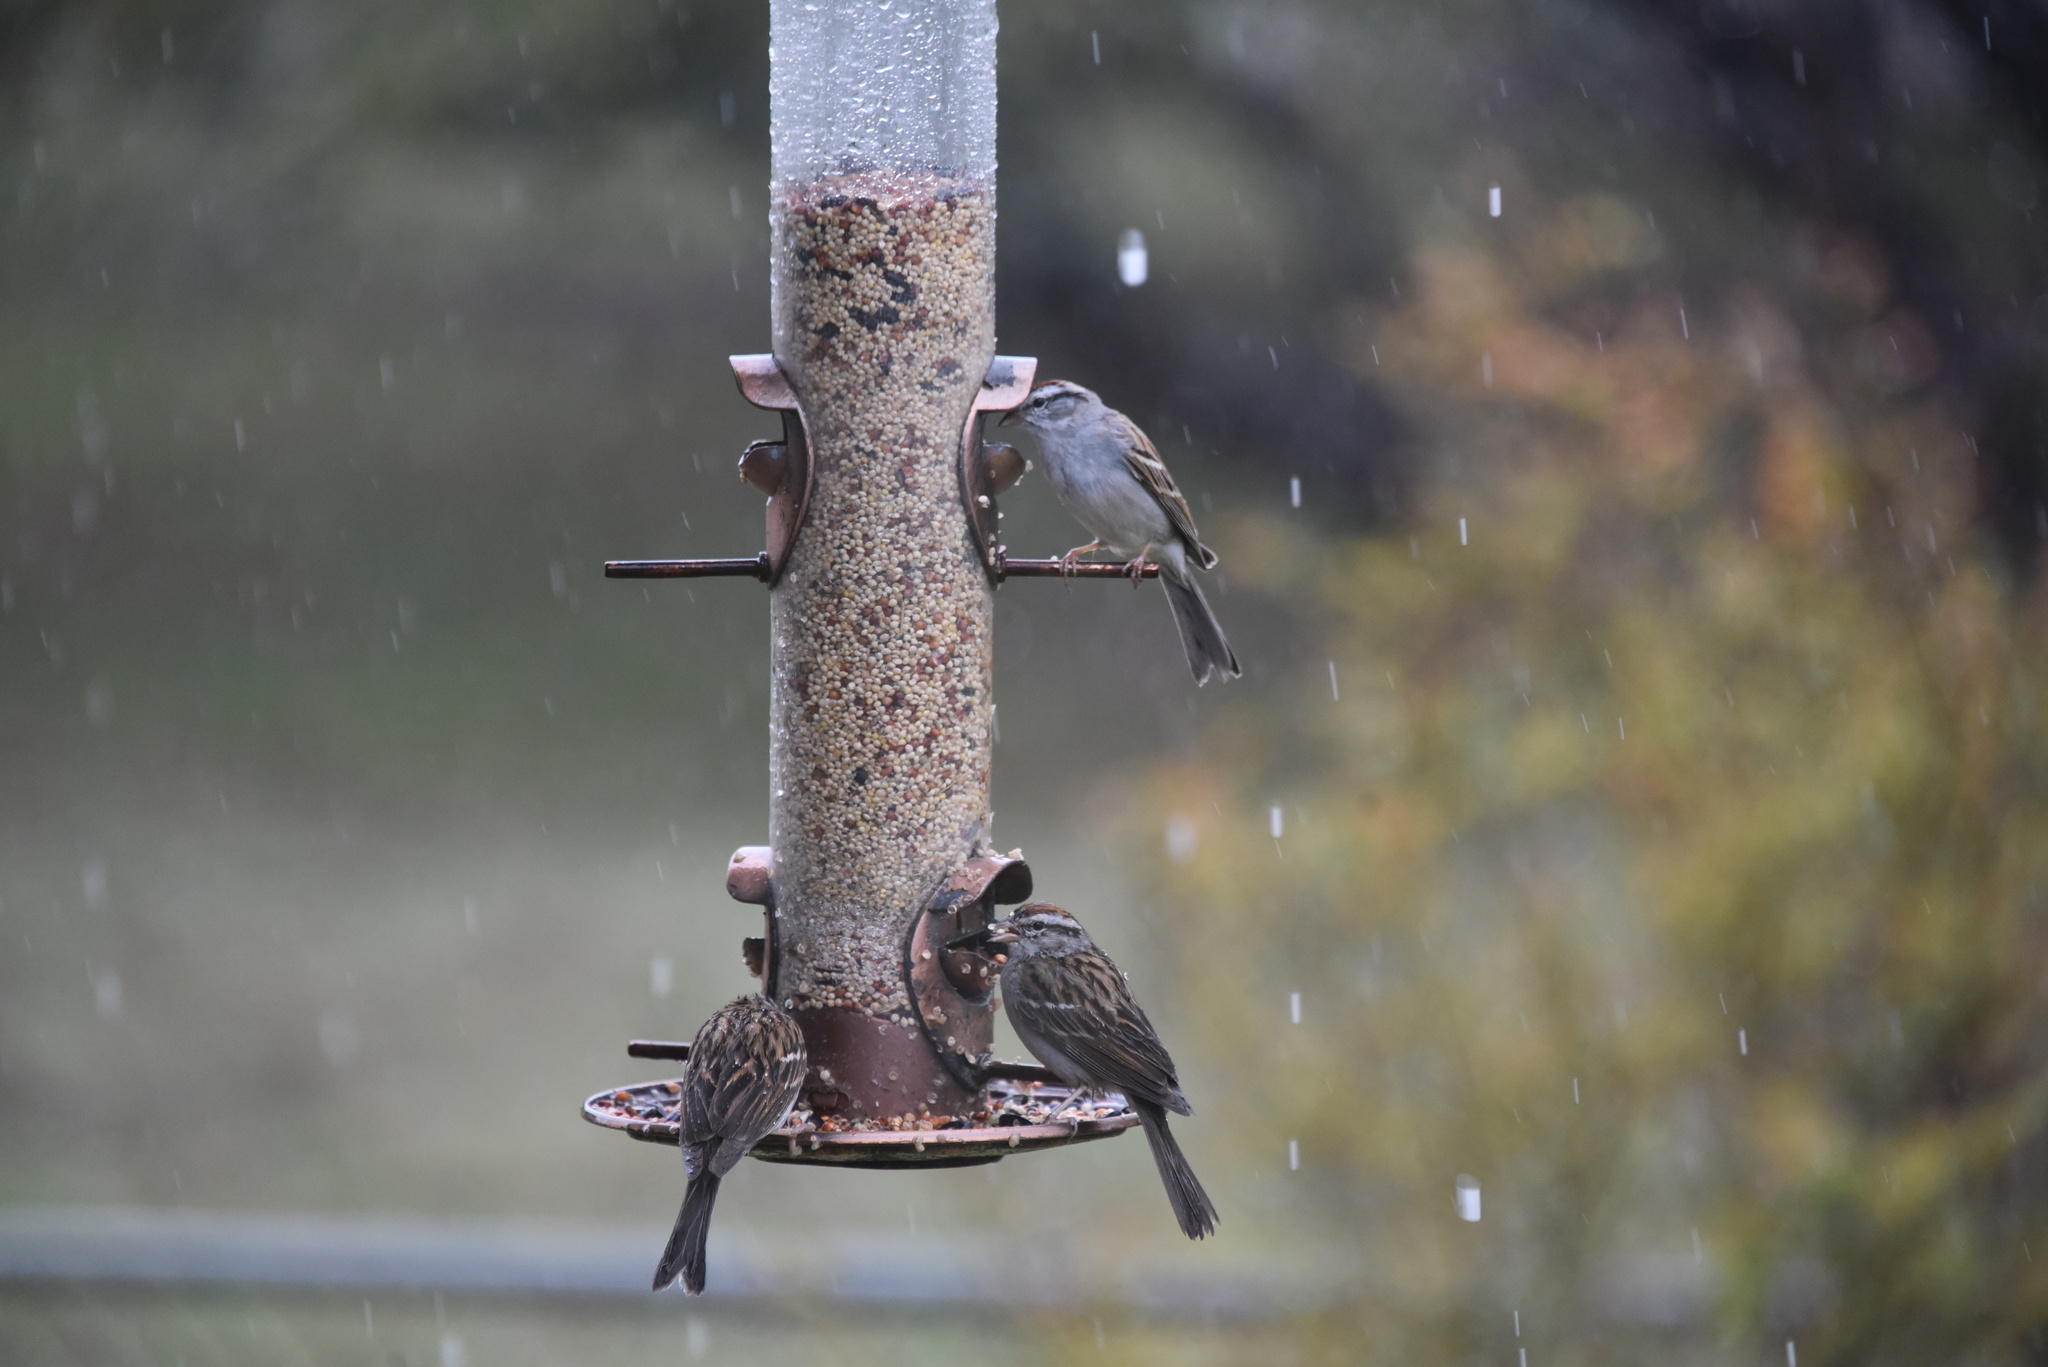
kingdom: Animalia
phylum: Chordata
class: Aves
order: Passeriformes
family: Passerellidae
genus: Spizella
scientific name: Spizella passerina
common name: Chipping sparrow
